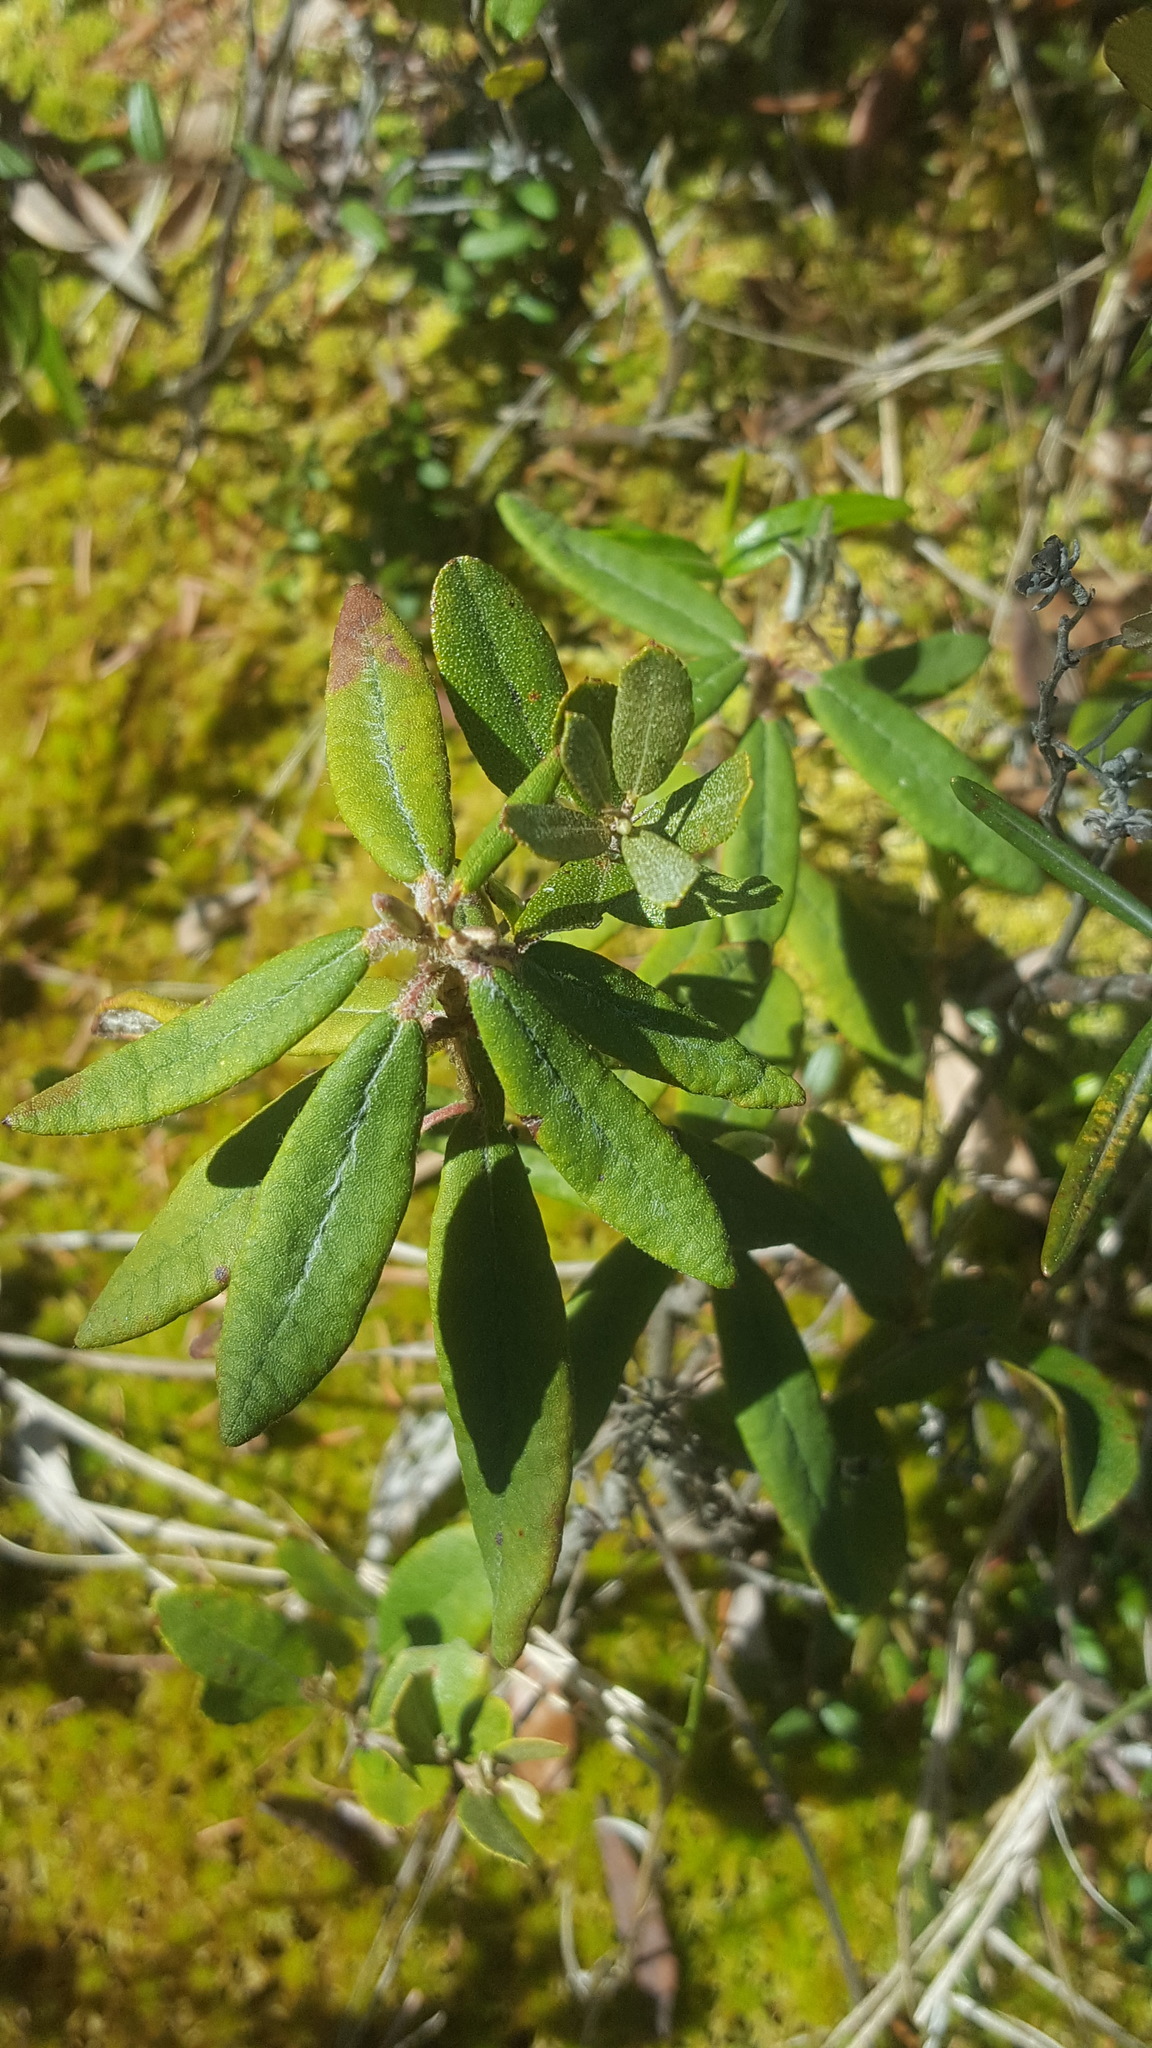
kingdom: Plantae
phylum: Tracheophyta
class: Magnoliopsida
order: Ericales
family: Ericaceae
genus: Rhododendron
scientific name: Rhododendron groenlandicum
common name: Bog labrador tea
